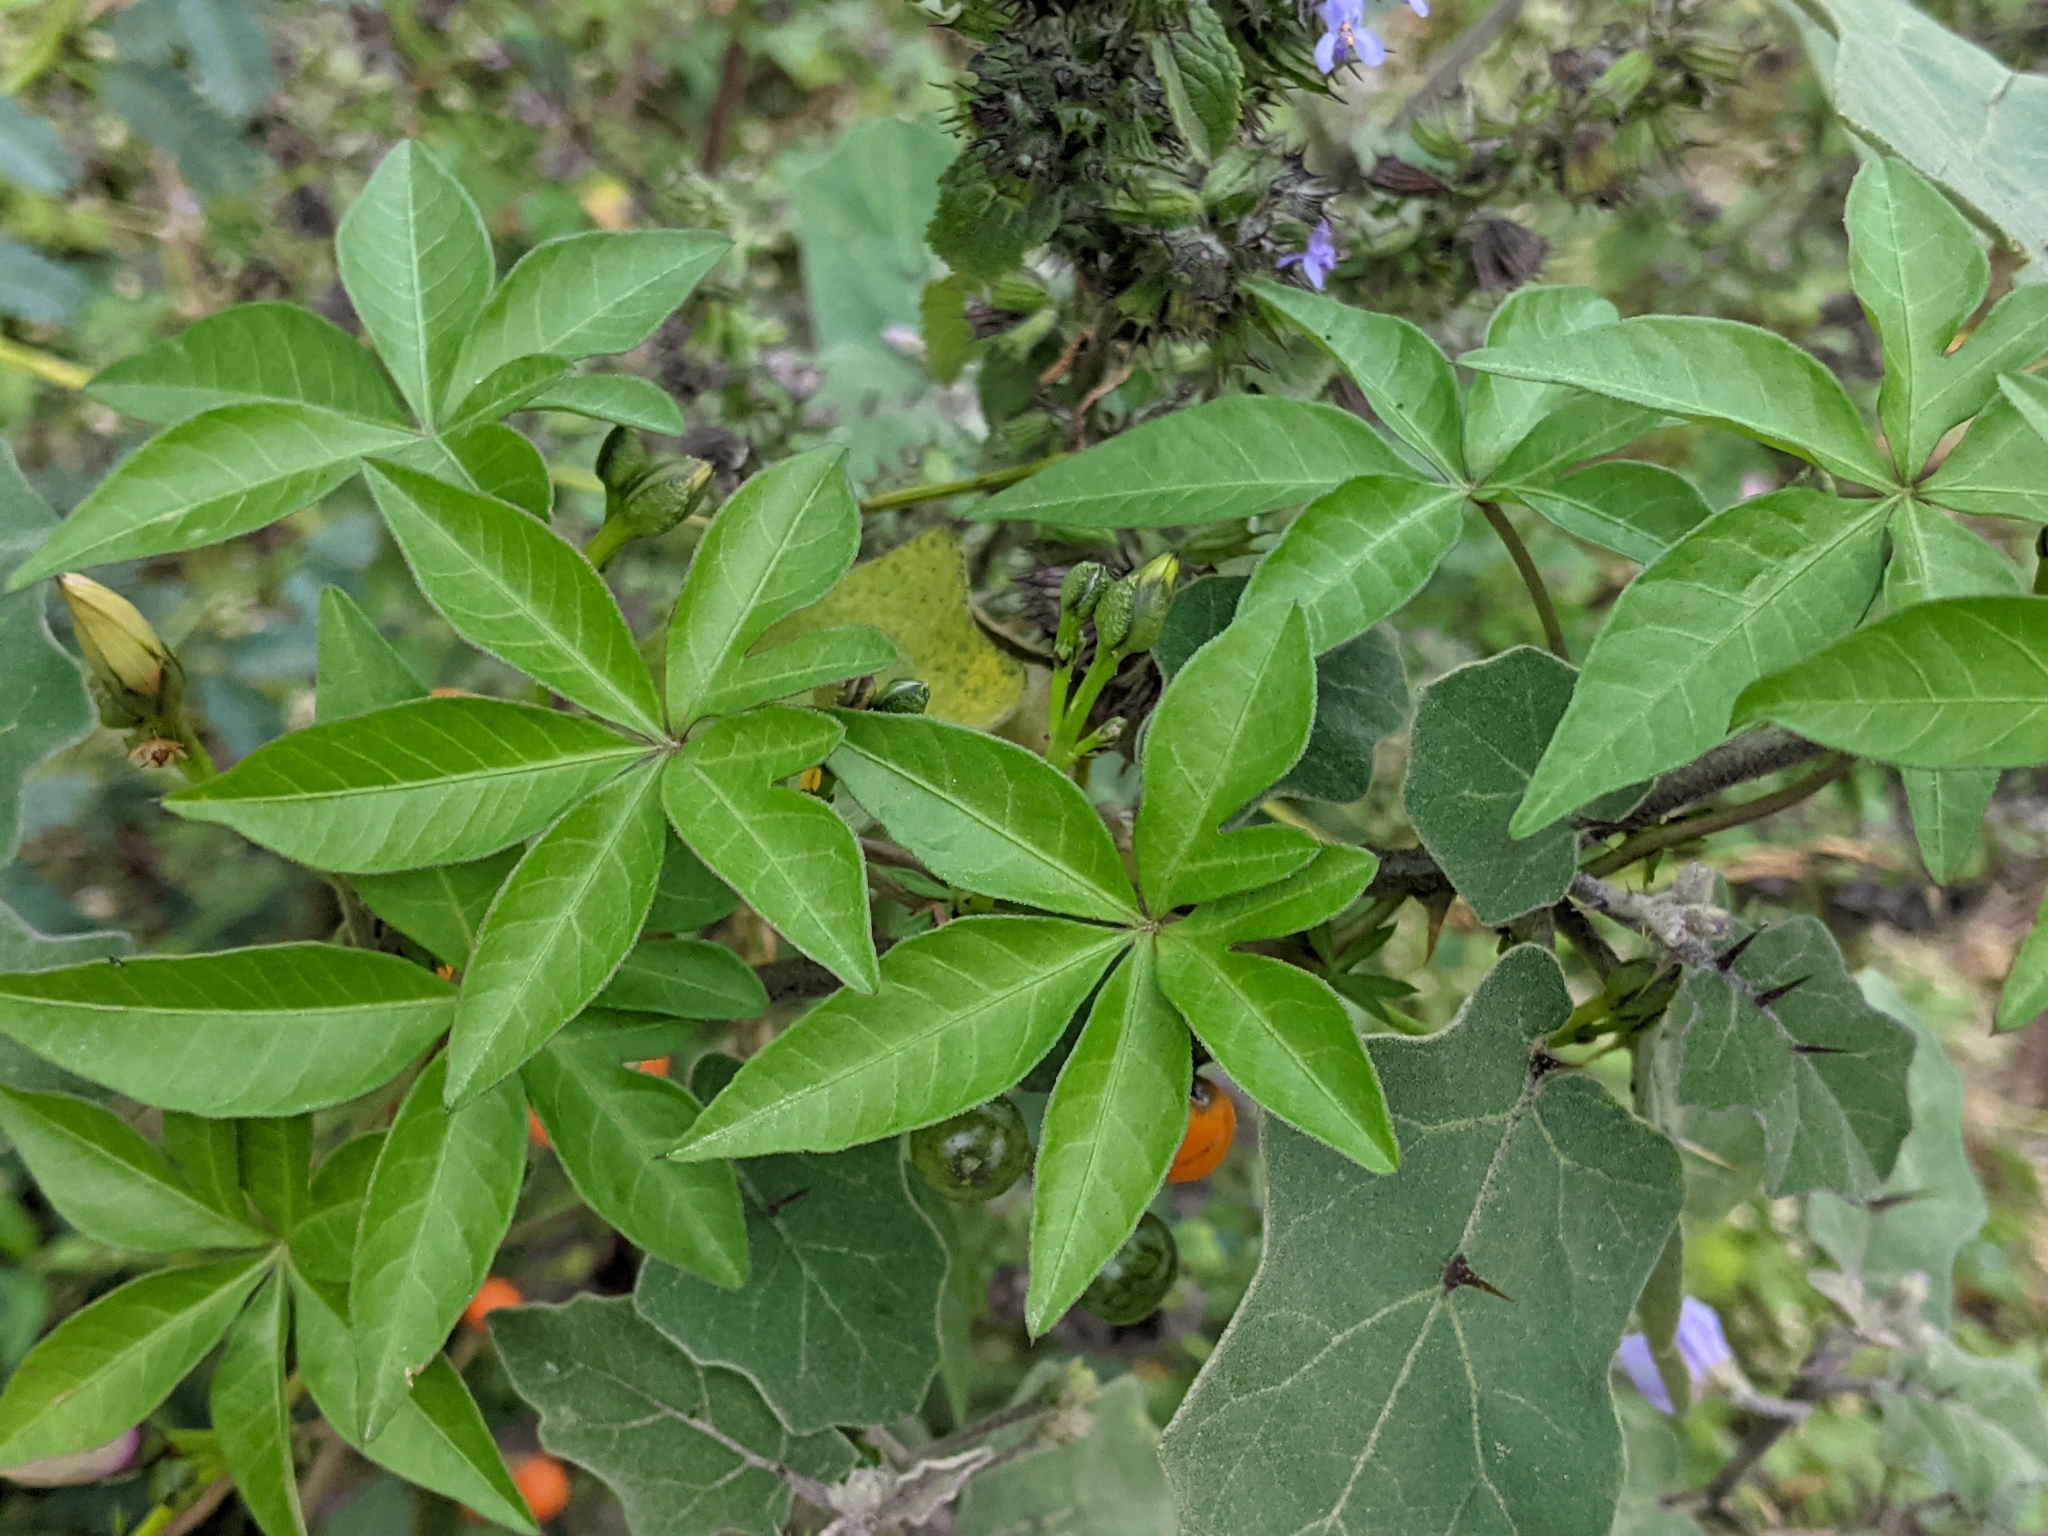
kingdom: Plantae
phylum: Tracheophyta
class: Magnoliopsida
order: Solanales
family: Convolvulaceae
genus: Ipomoea
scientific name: Ipomoea cairica
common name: Mile a minute vine
